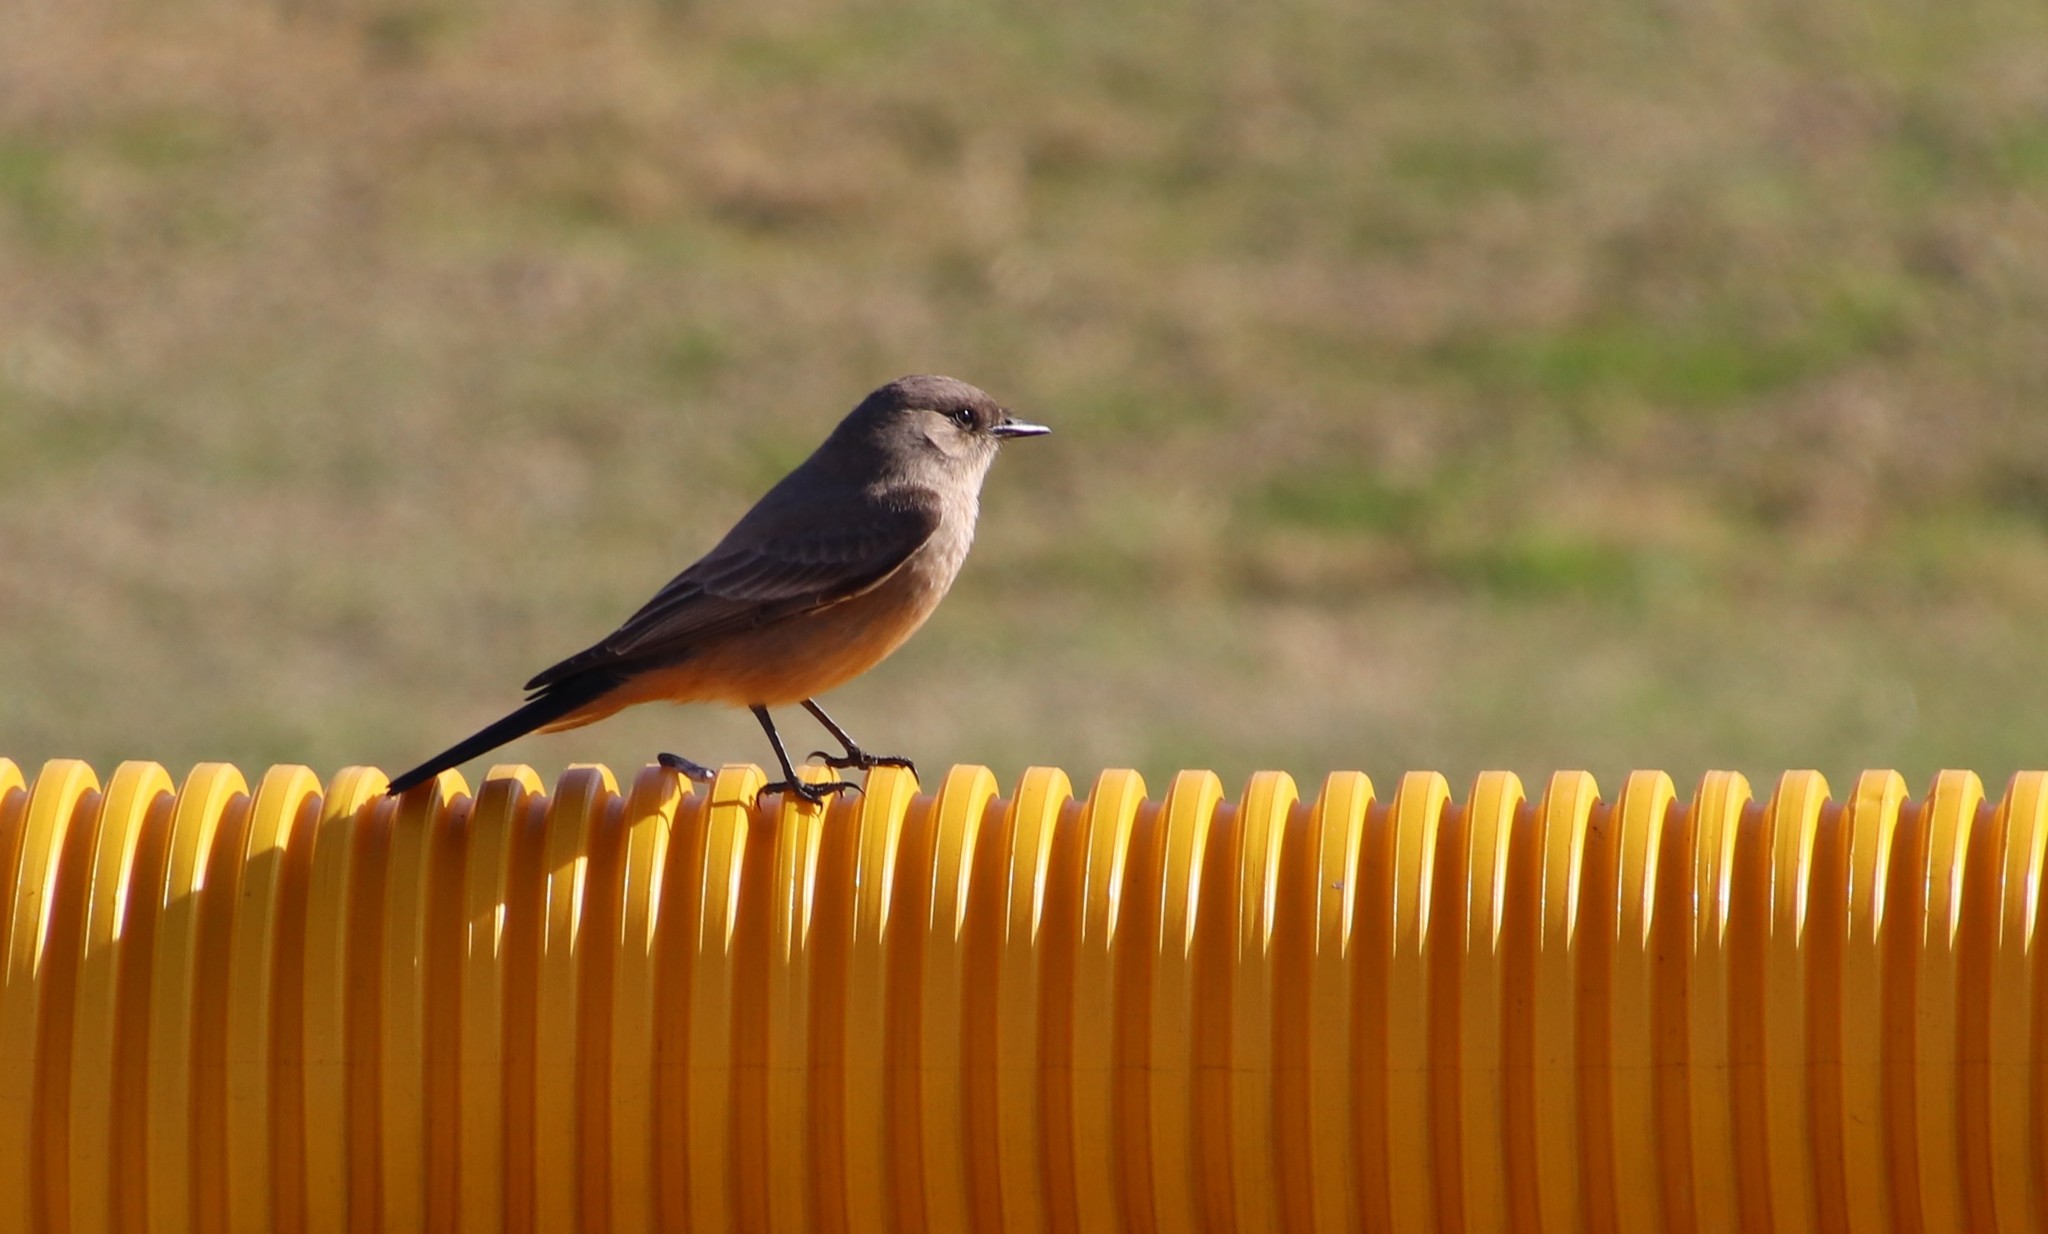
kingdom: Animalia
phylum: Chordata
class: Aves
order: Passeriformes
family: Tyrannidae
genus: Sayornis
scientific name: Sayornis saya
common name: Say's phoebe
